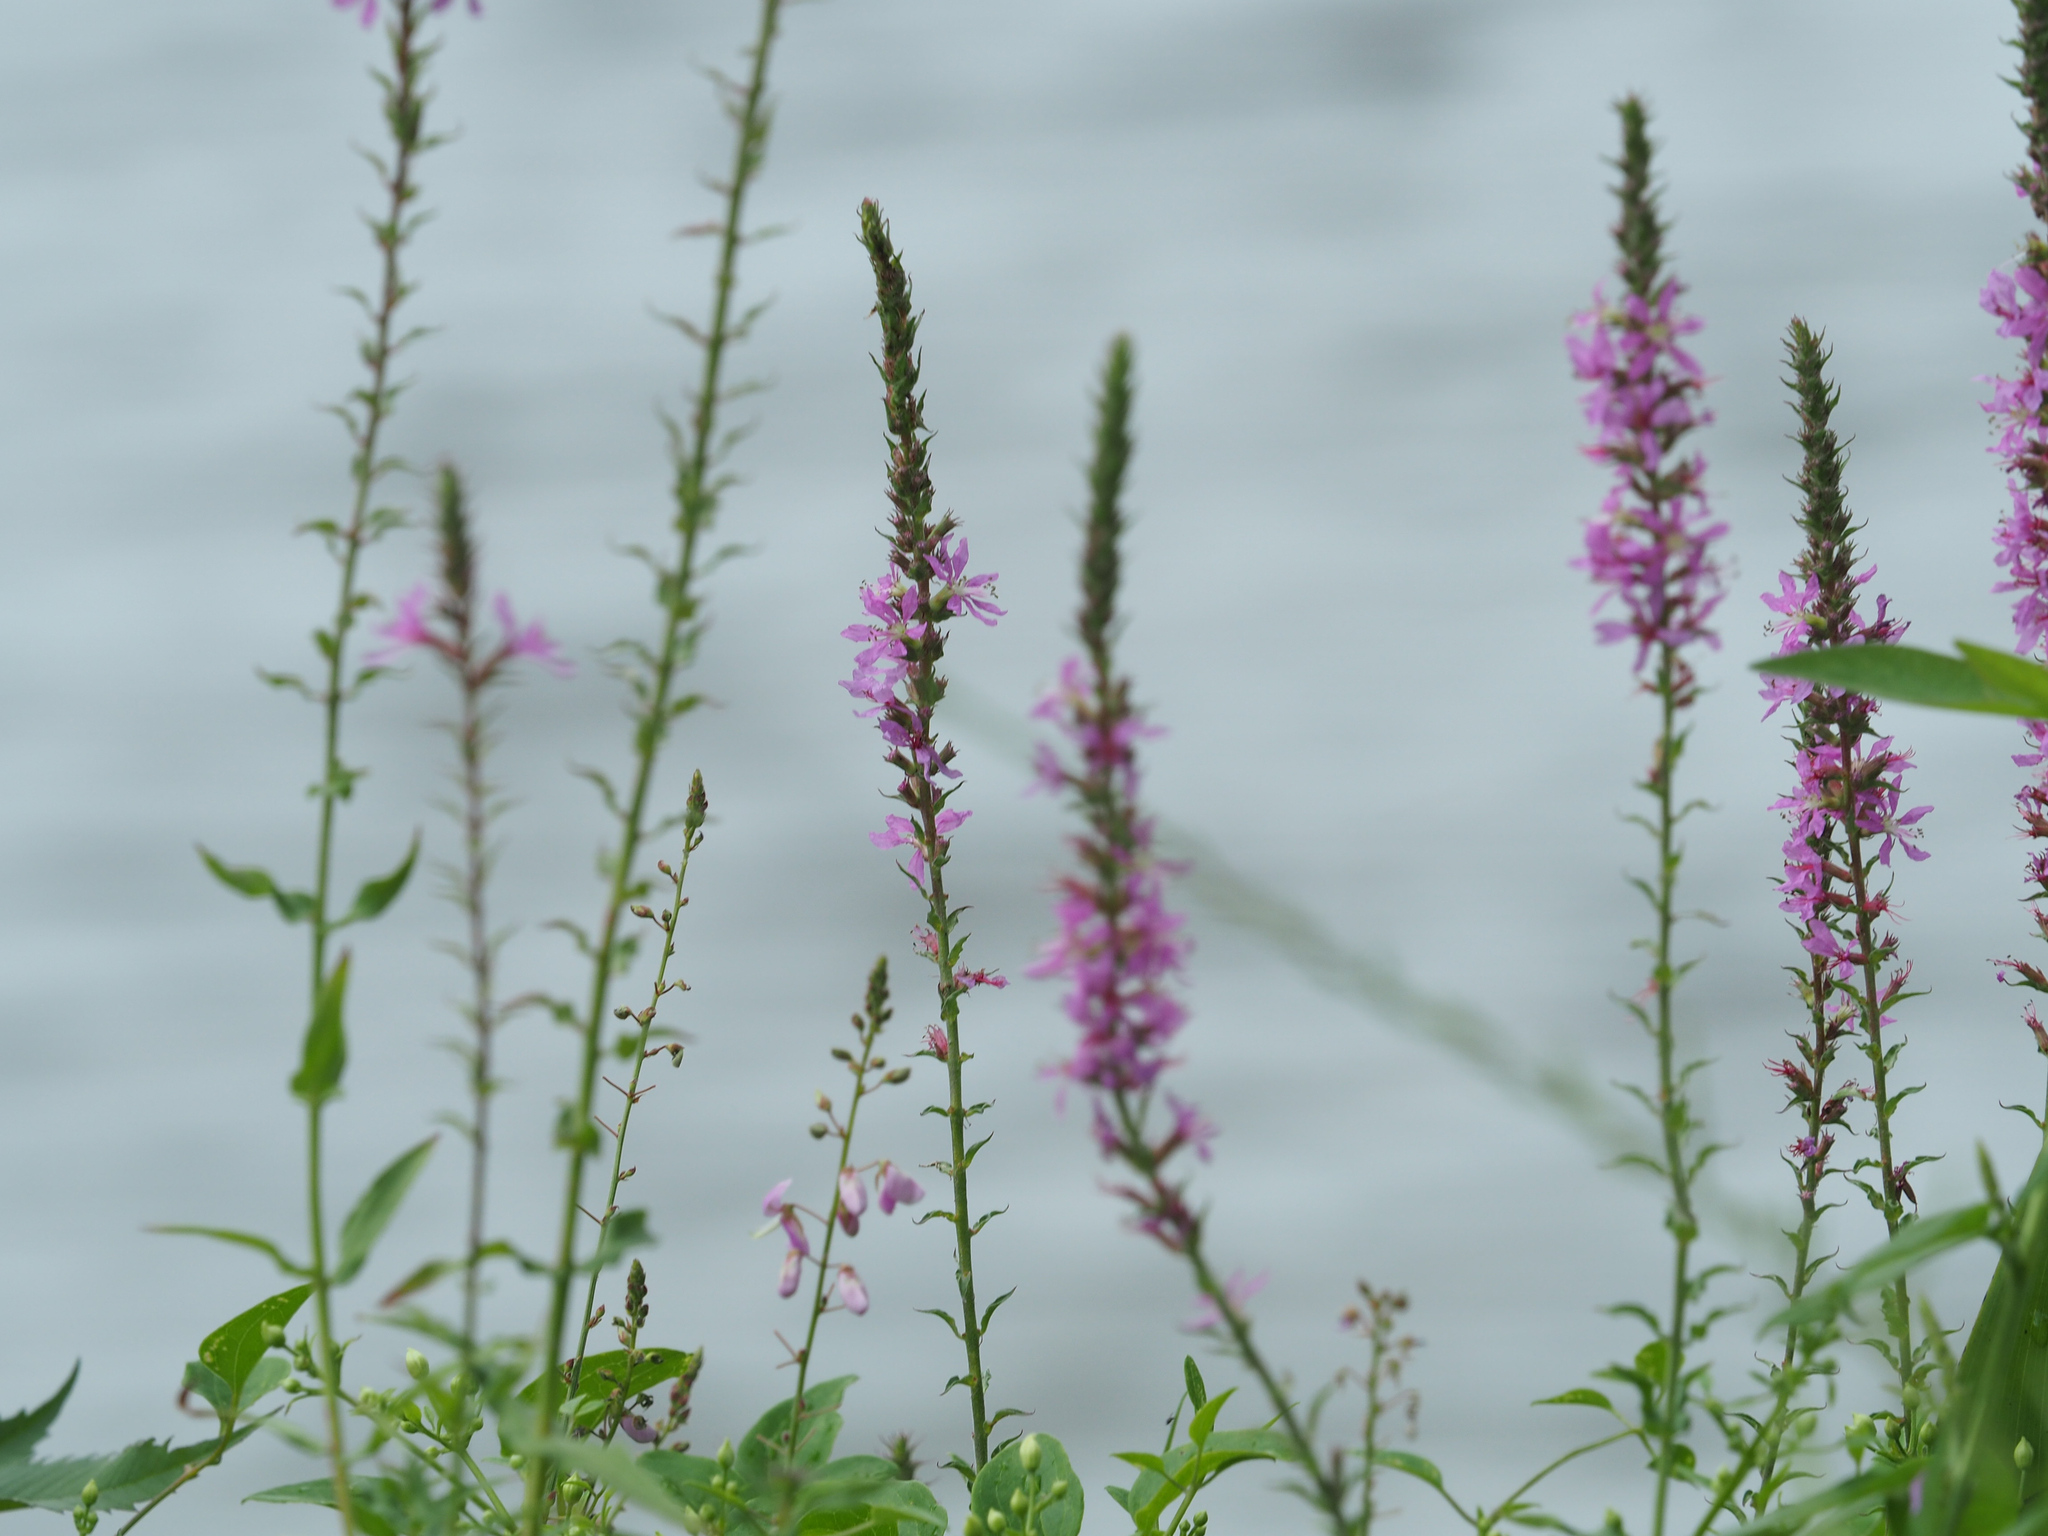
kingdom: Plantae
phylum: Tracheophyta
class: Magnoliopsida
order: Myrtales
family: Lythraceae
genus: Lythrum
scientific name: Lythrum salicaria
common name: Purple loosestrife
